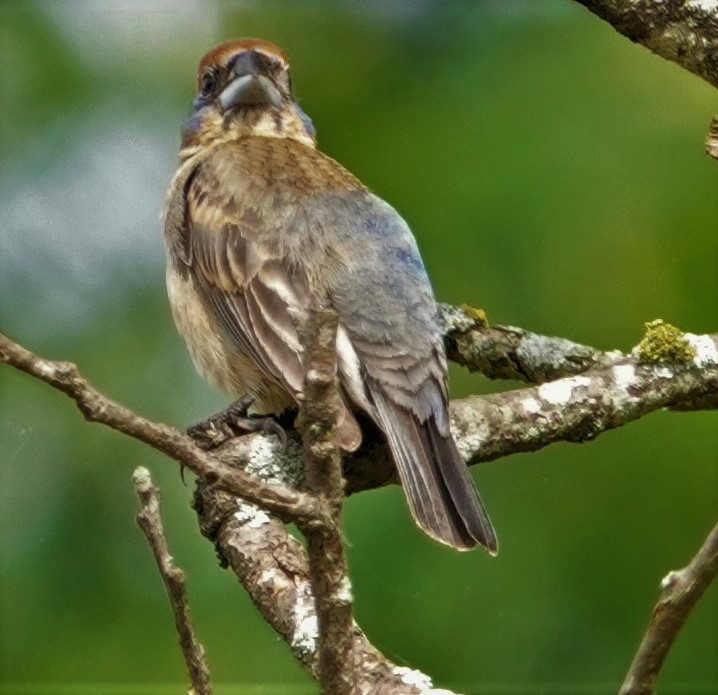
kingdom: Animalia
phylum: Chordata
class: Aves
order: Passeriformes
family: Cardinalidae
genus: Passerina
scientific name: Passerina caerulea
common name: Blue grosbeak
